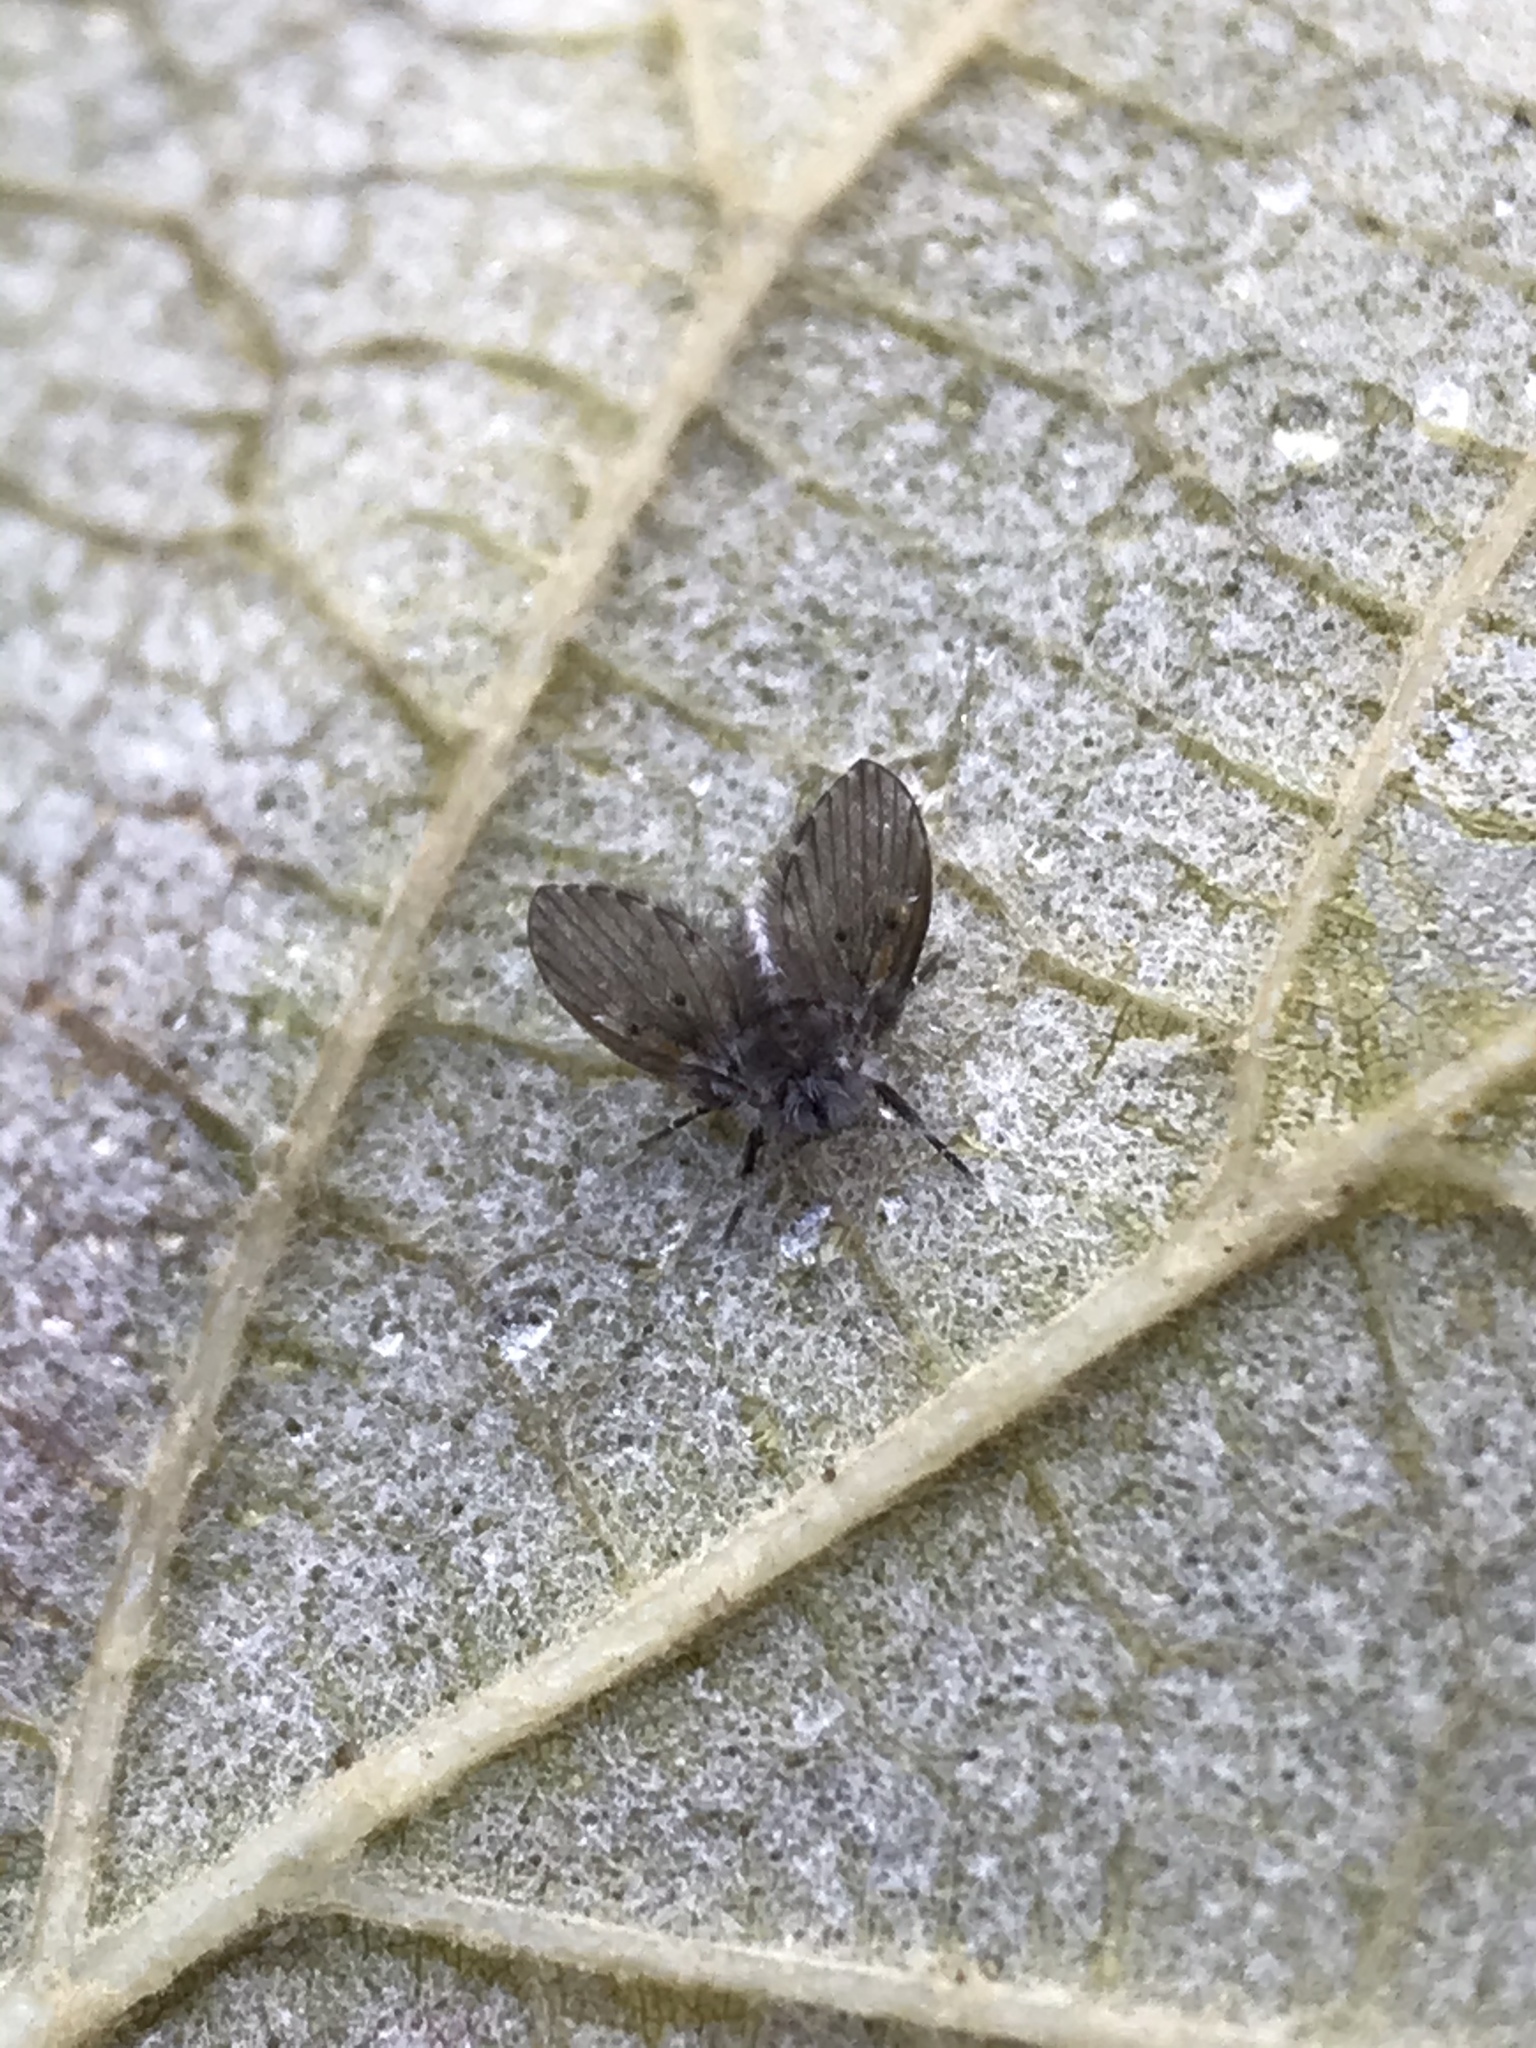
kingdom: Animalia
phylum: Arthropoda
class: Insecta
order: Diptera
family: Psychodidae
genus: Clogmia
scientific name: Clogmia albipunctatus
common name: White-spotted moth fly
